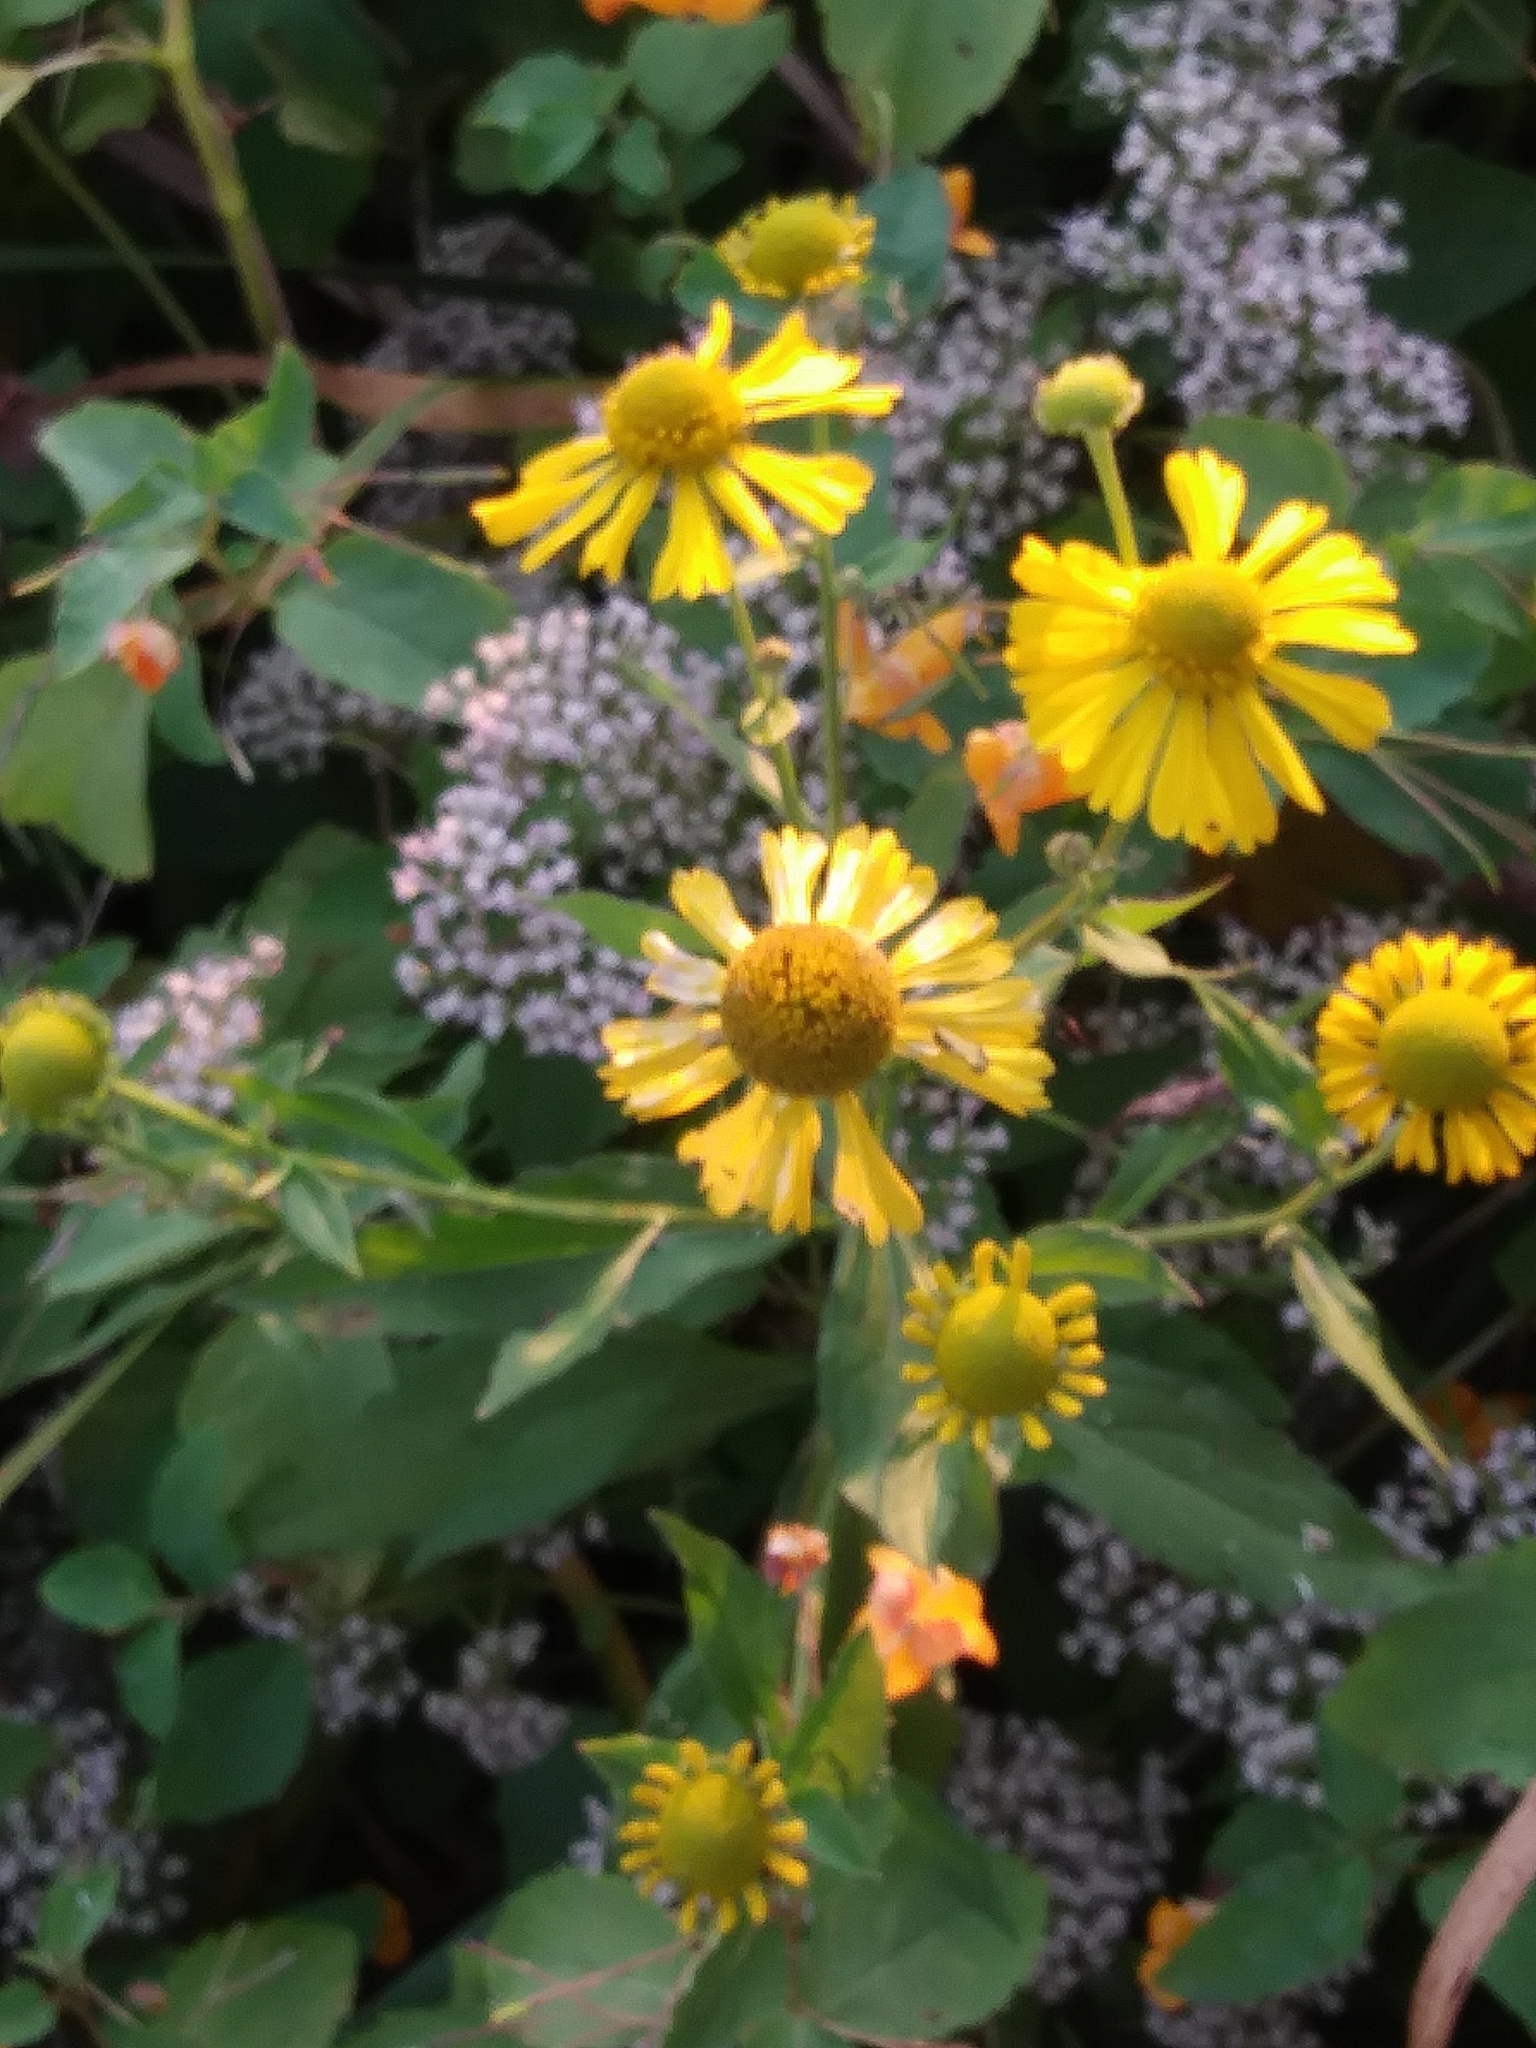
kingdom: Plantae
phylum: Tracheophyta
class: Magnoliopsida
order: Asterales
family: Asteraceae
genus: Helenium
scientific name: Helenium autumnale
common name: Sneezeweed
